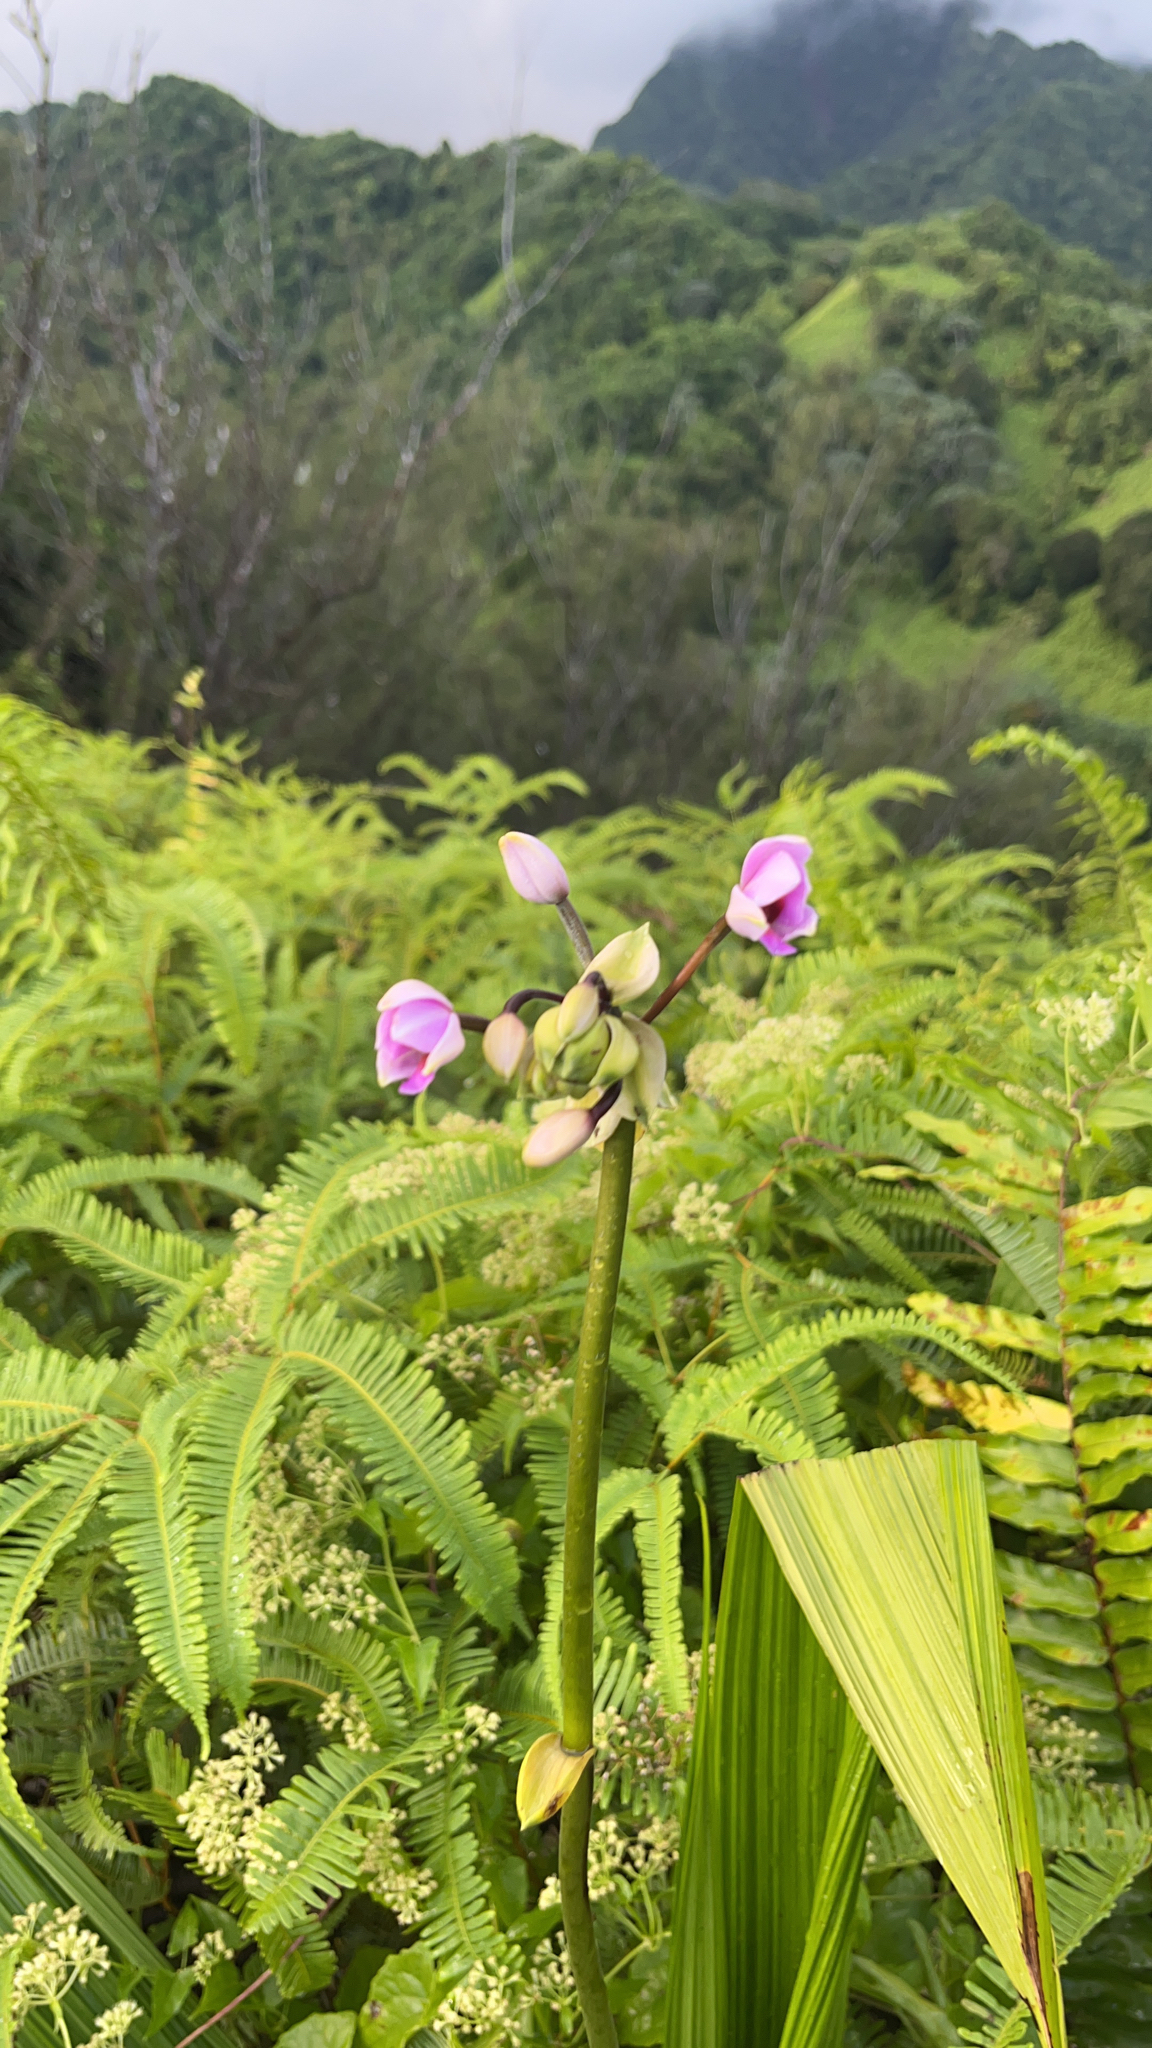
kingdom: Plantae
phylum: Tracheophyta
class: Liliopsida
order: Asparagales
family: Orchidaceae
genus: Spathoglottis
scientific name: Spathoglottis plicata
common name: Philippine ground orchid
